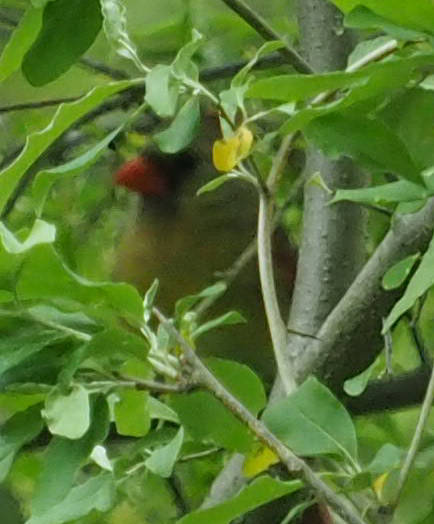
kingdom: Animalia
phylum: Chordata
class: Aves
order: Passeriformes
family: Cardinalidae
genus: Cardinalis
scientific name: Cardinalis cardinalis
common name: Northern cardinal
